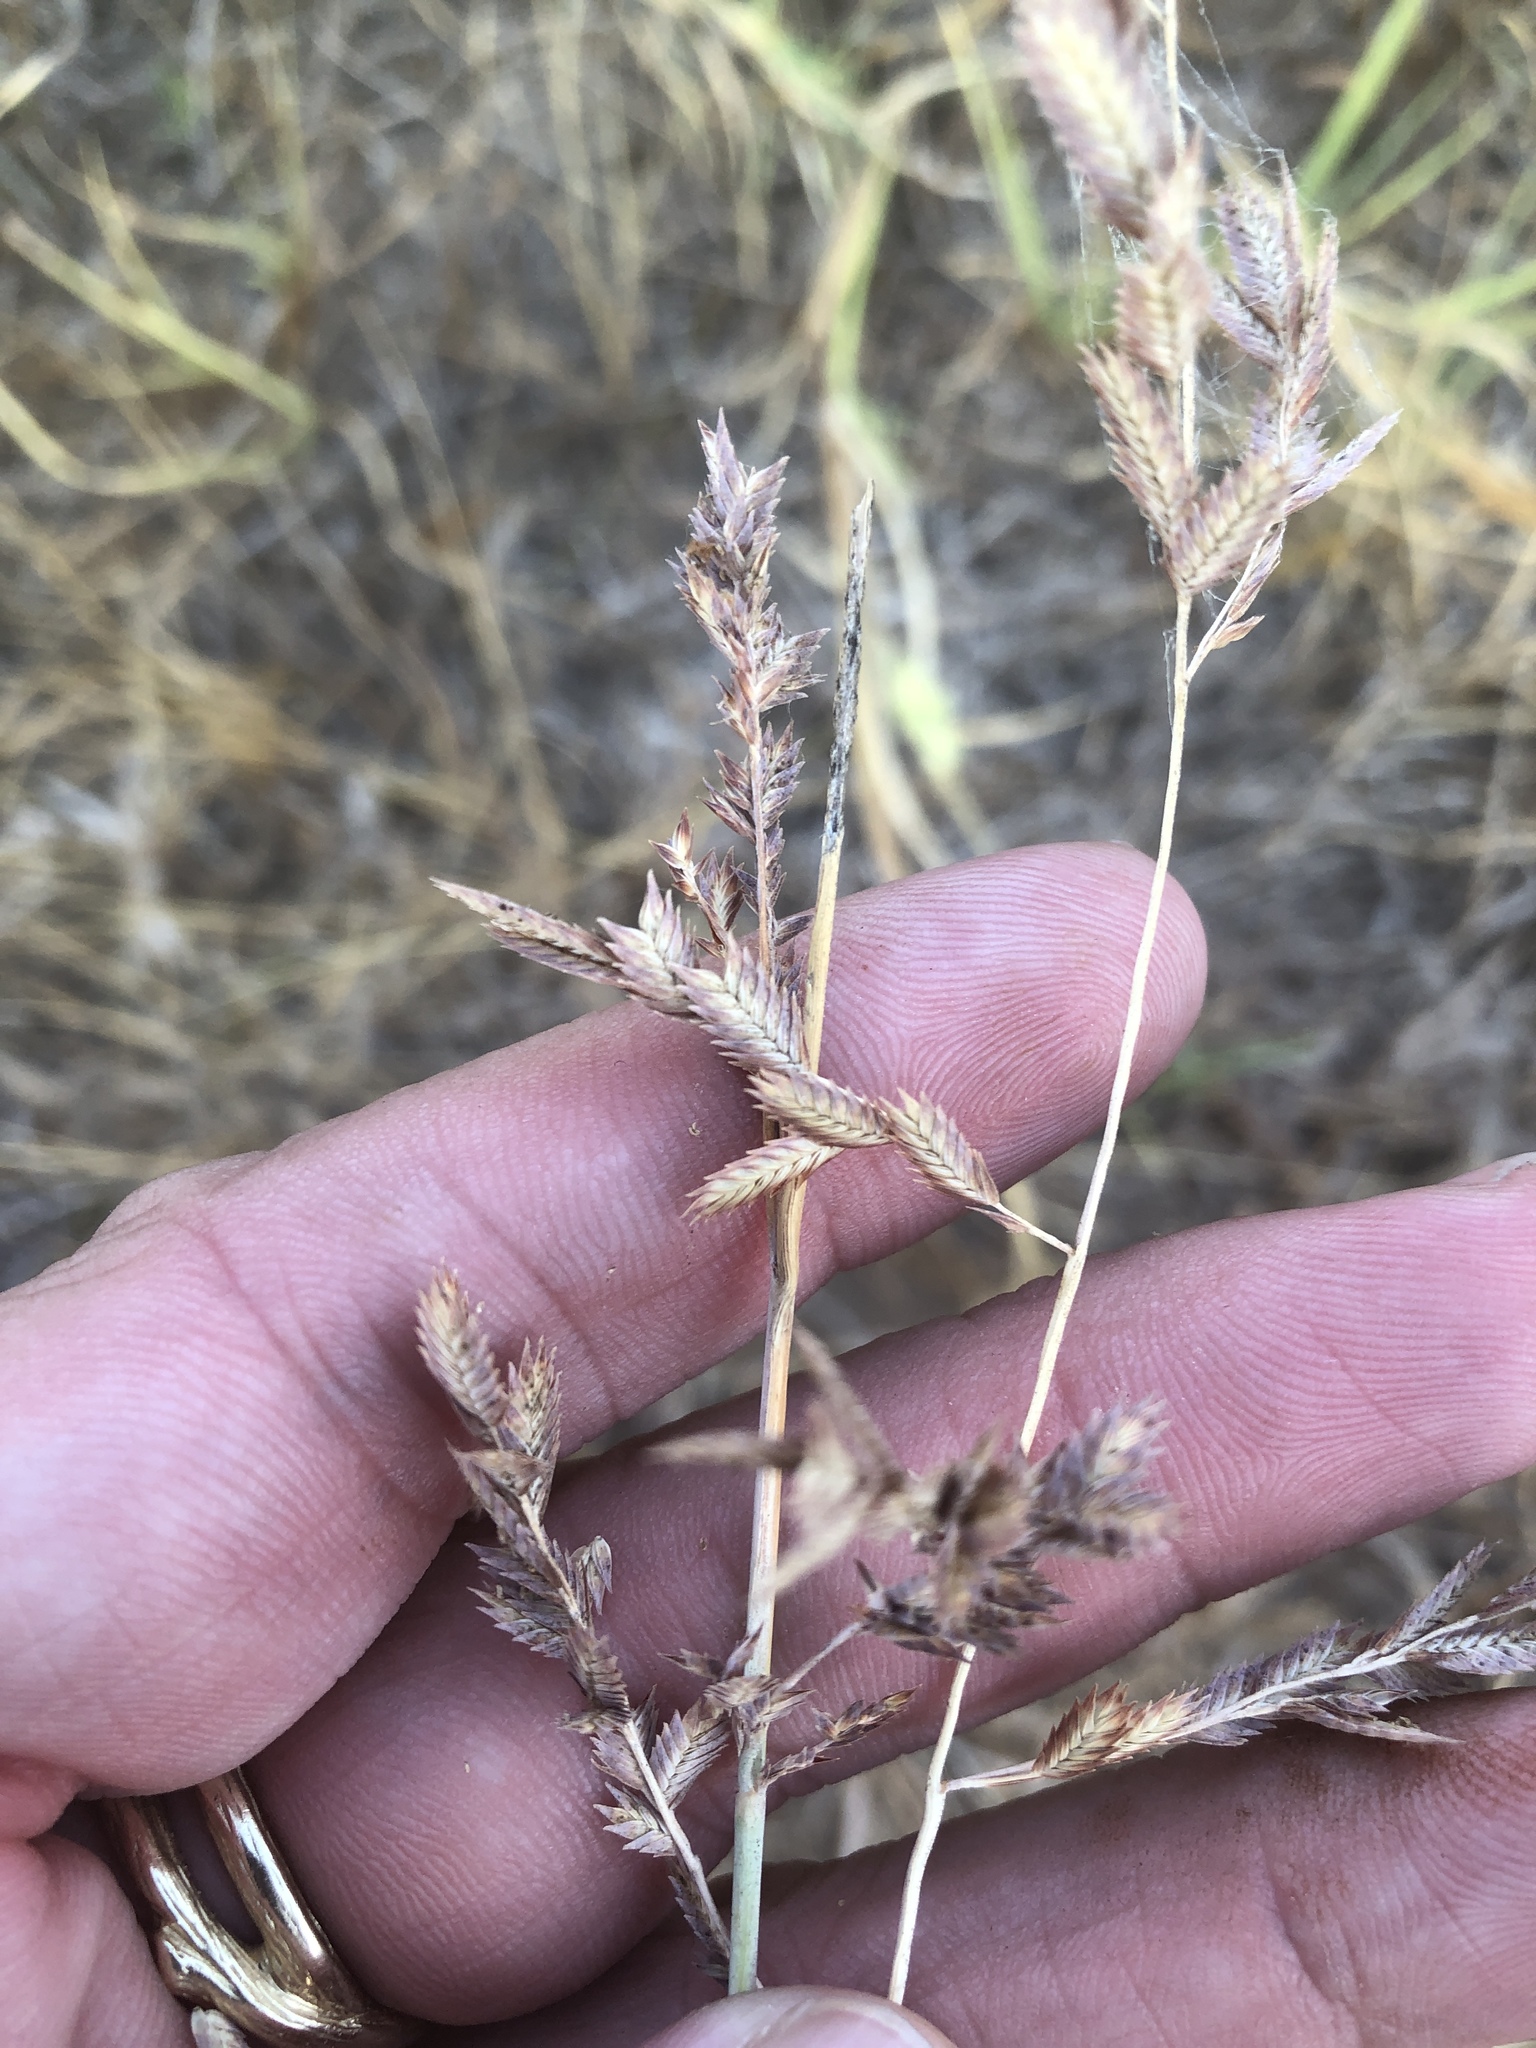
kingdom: Plantae
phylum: Tracheophyta
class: Liliopsida
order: Poales
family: Poaceae
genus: Eragrostis
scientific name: Eragrostis secundiflora
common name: Red love grass
